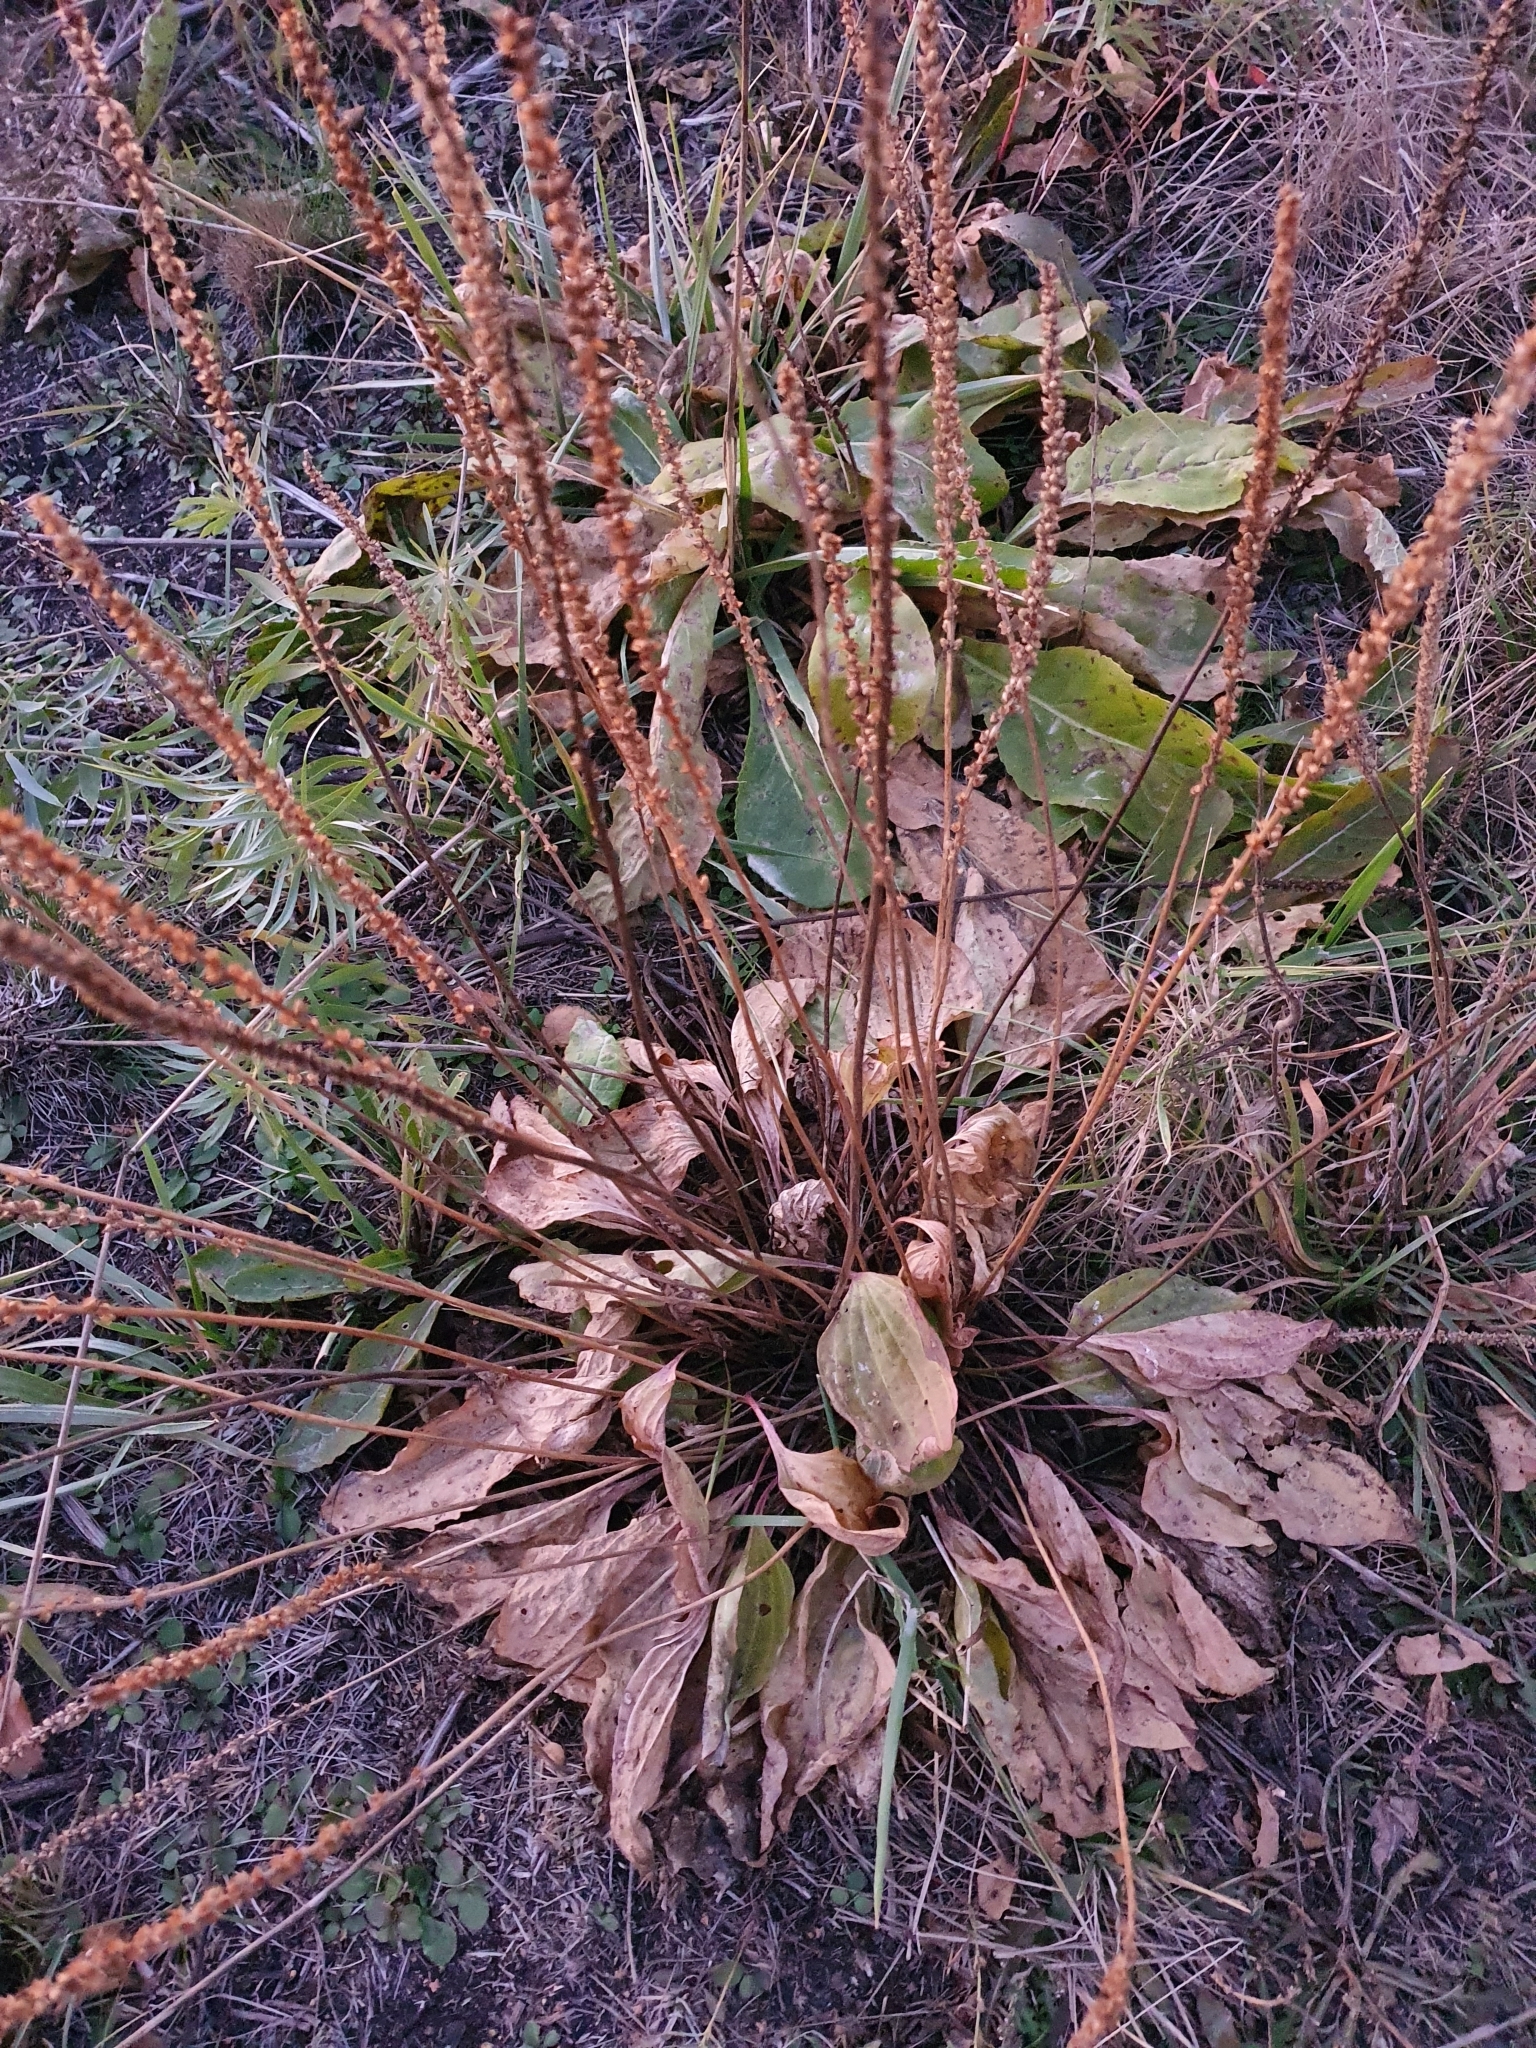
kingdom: Plantae
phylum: Tracheophyta
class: Magnoliopsida
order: Lamiales
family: Plantaginaceae
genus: Plantago
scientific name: Plantago cornuti
